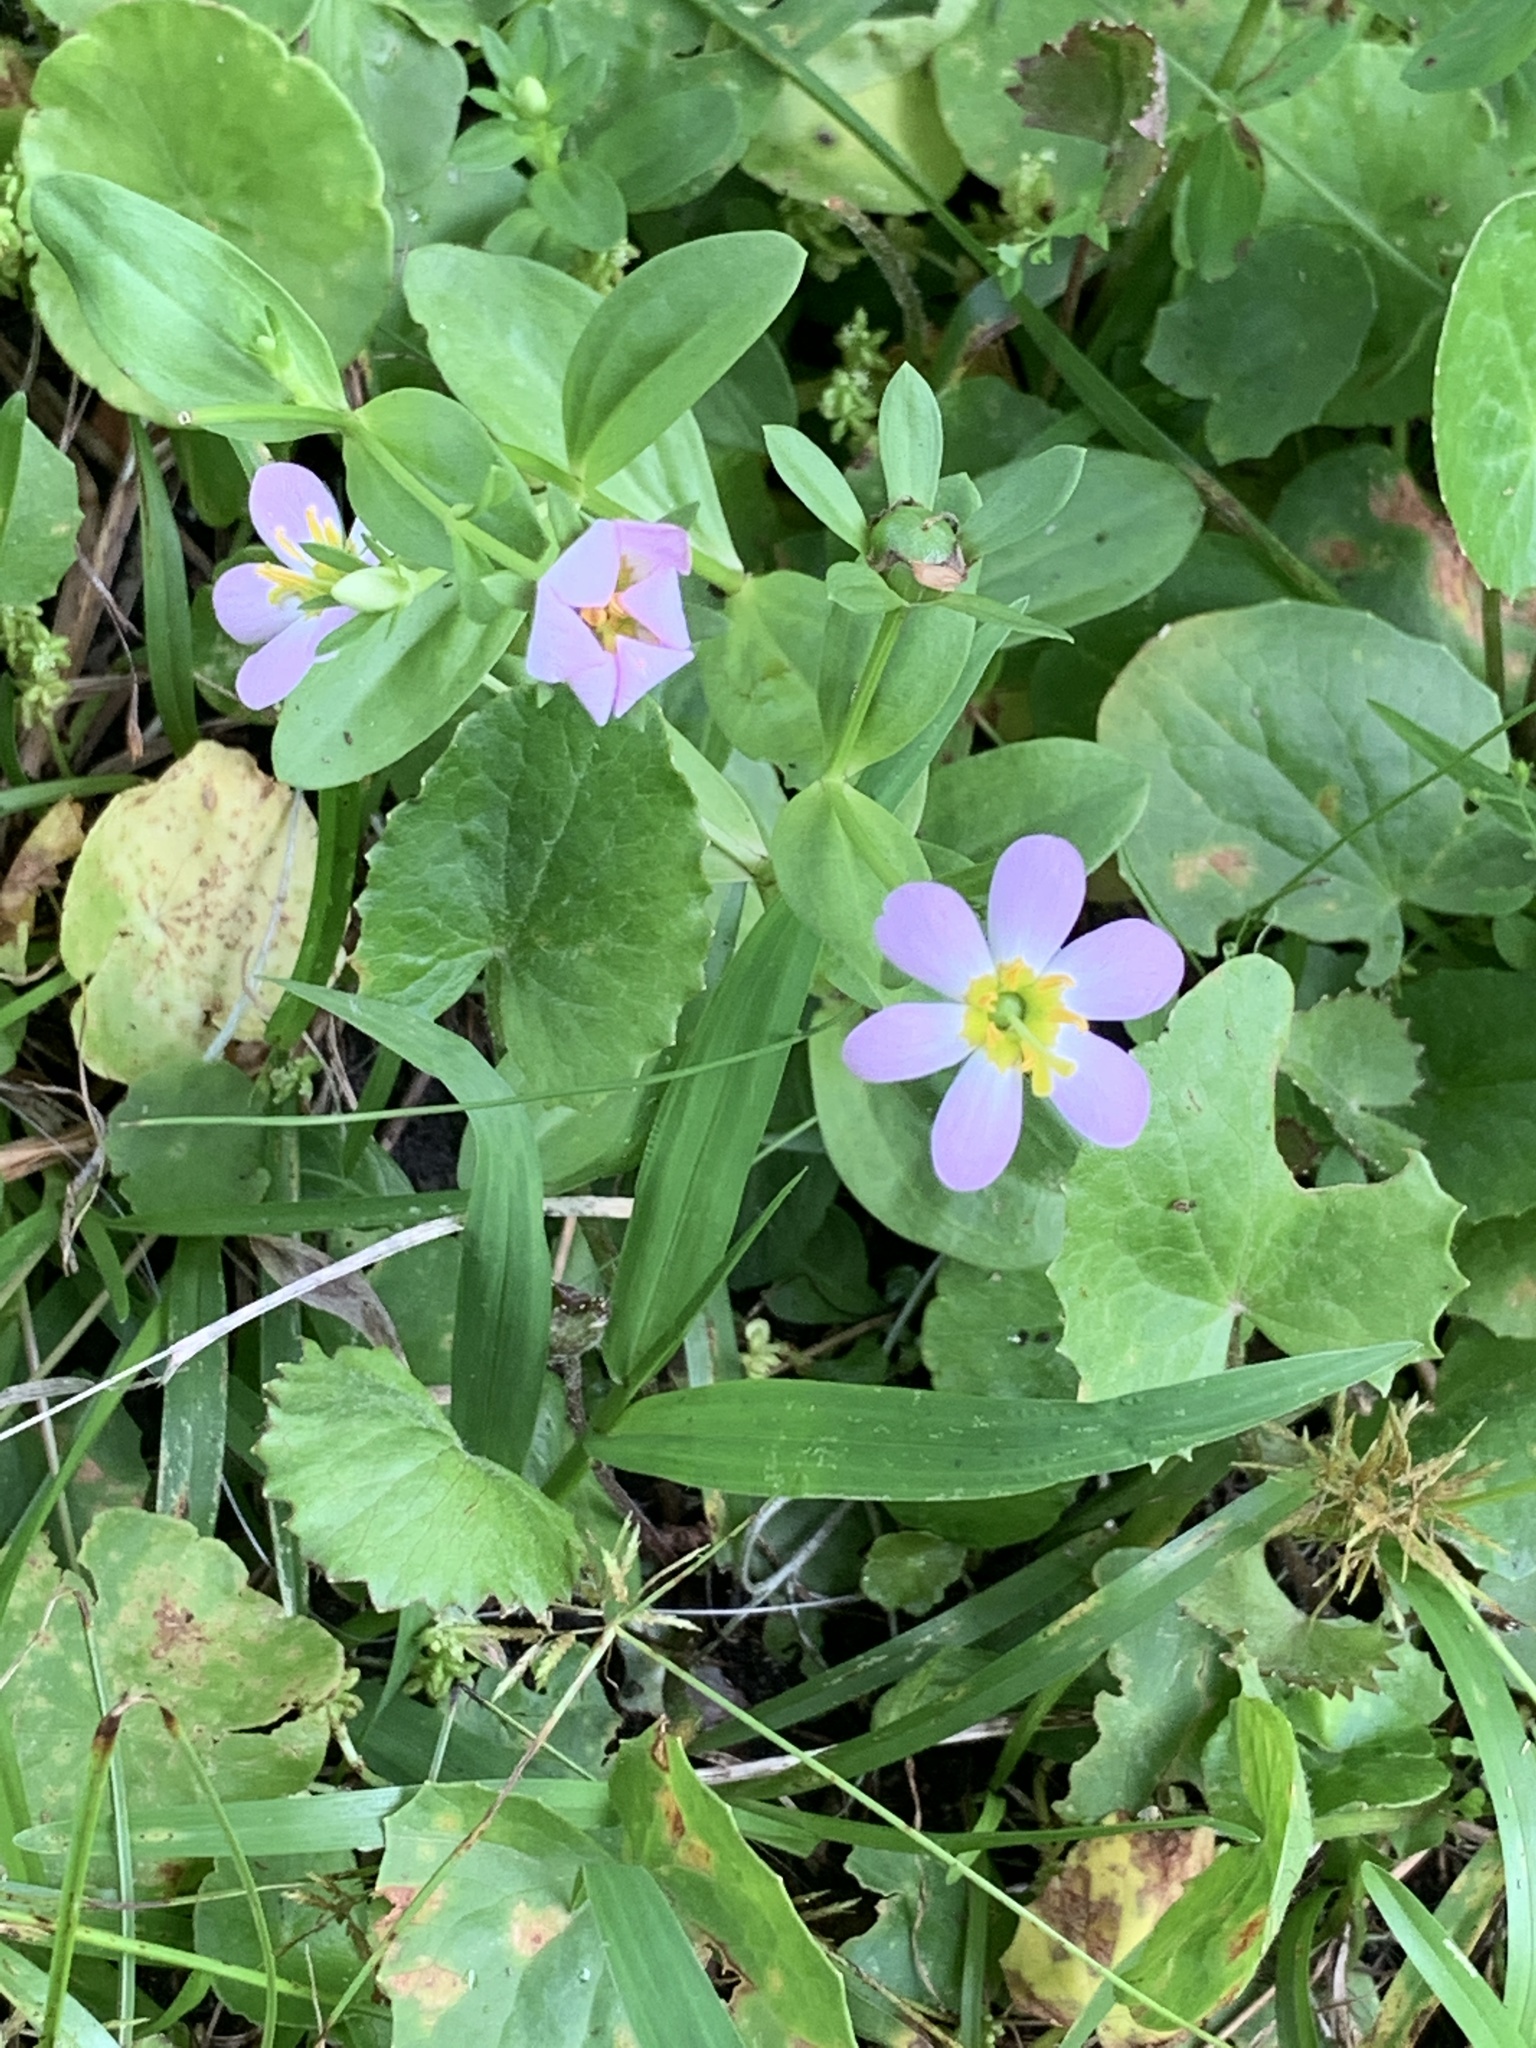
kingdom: Plantae
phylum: Tracheophyta
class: Magnoliopsida
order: Gentianales
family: Gentianaceae
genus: Sabatia
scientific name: Sabatia calycina
